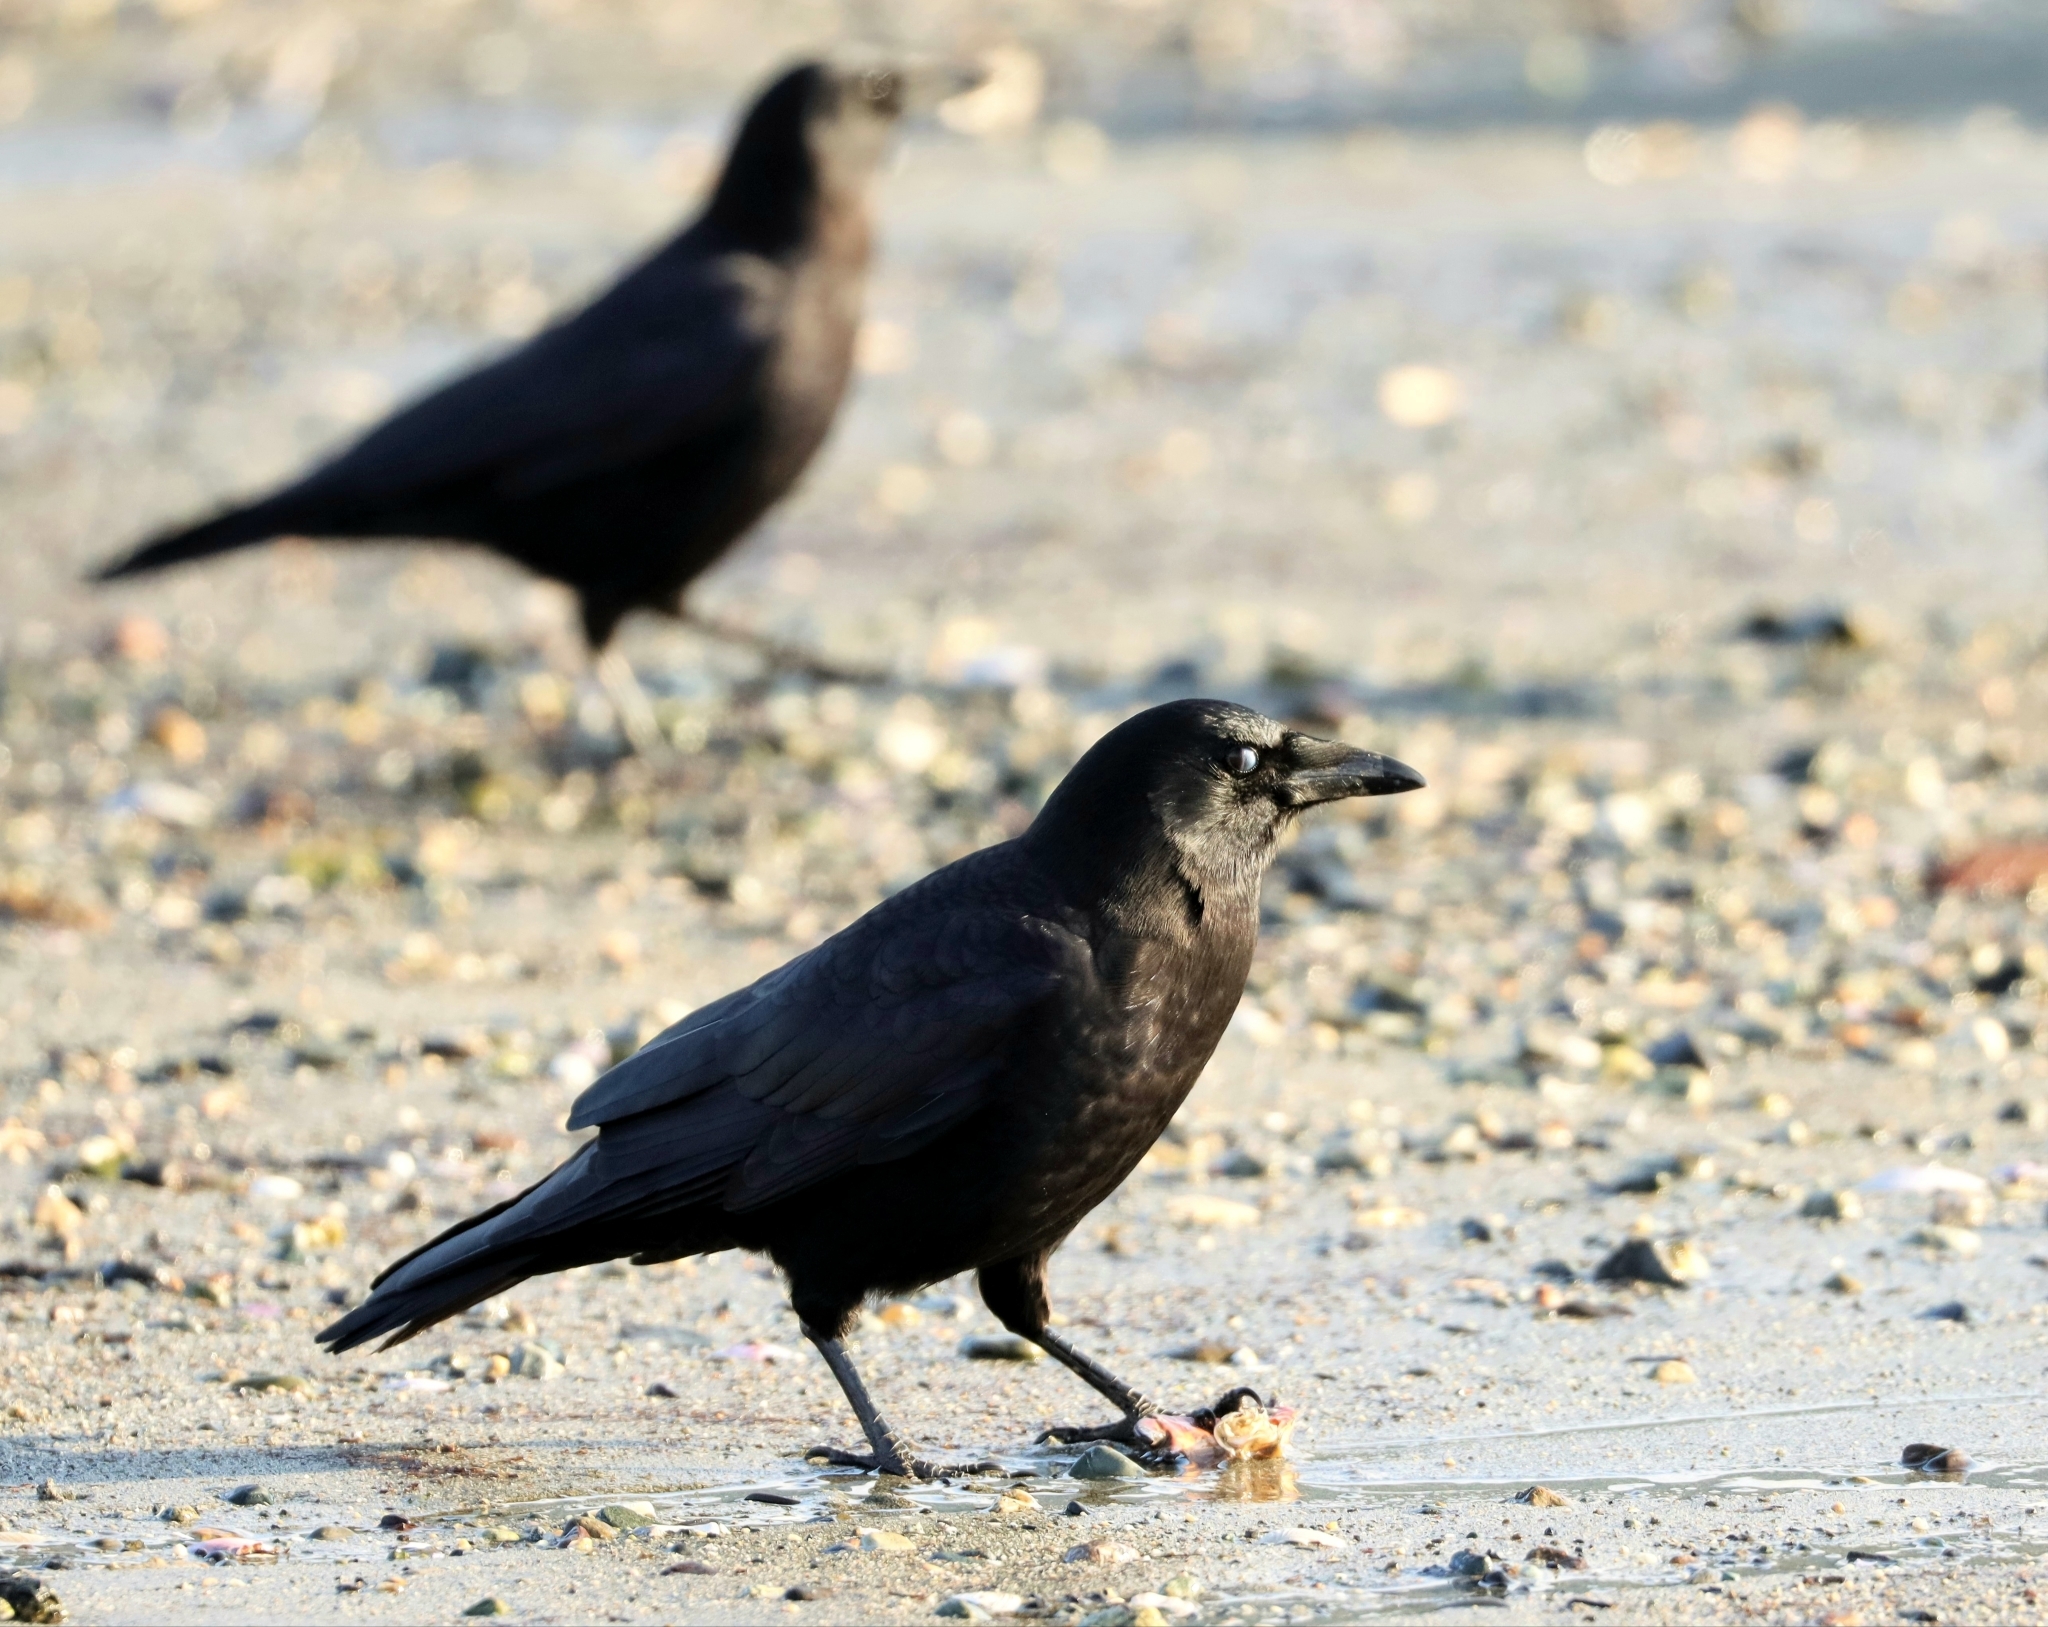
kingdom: Animalia
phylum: Chordata
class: Aves
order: Passeriformes
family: Corvidae
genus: Corvus
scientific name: Corvus brachyrhynchos
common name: American crow
